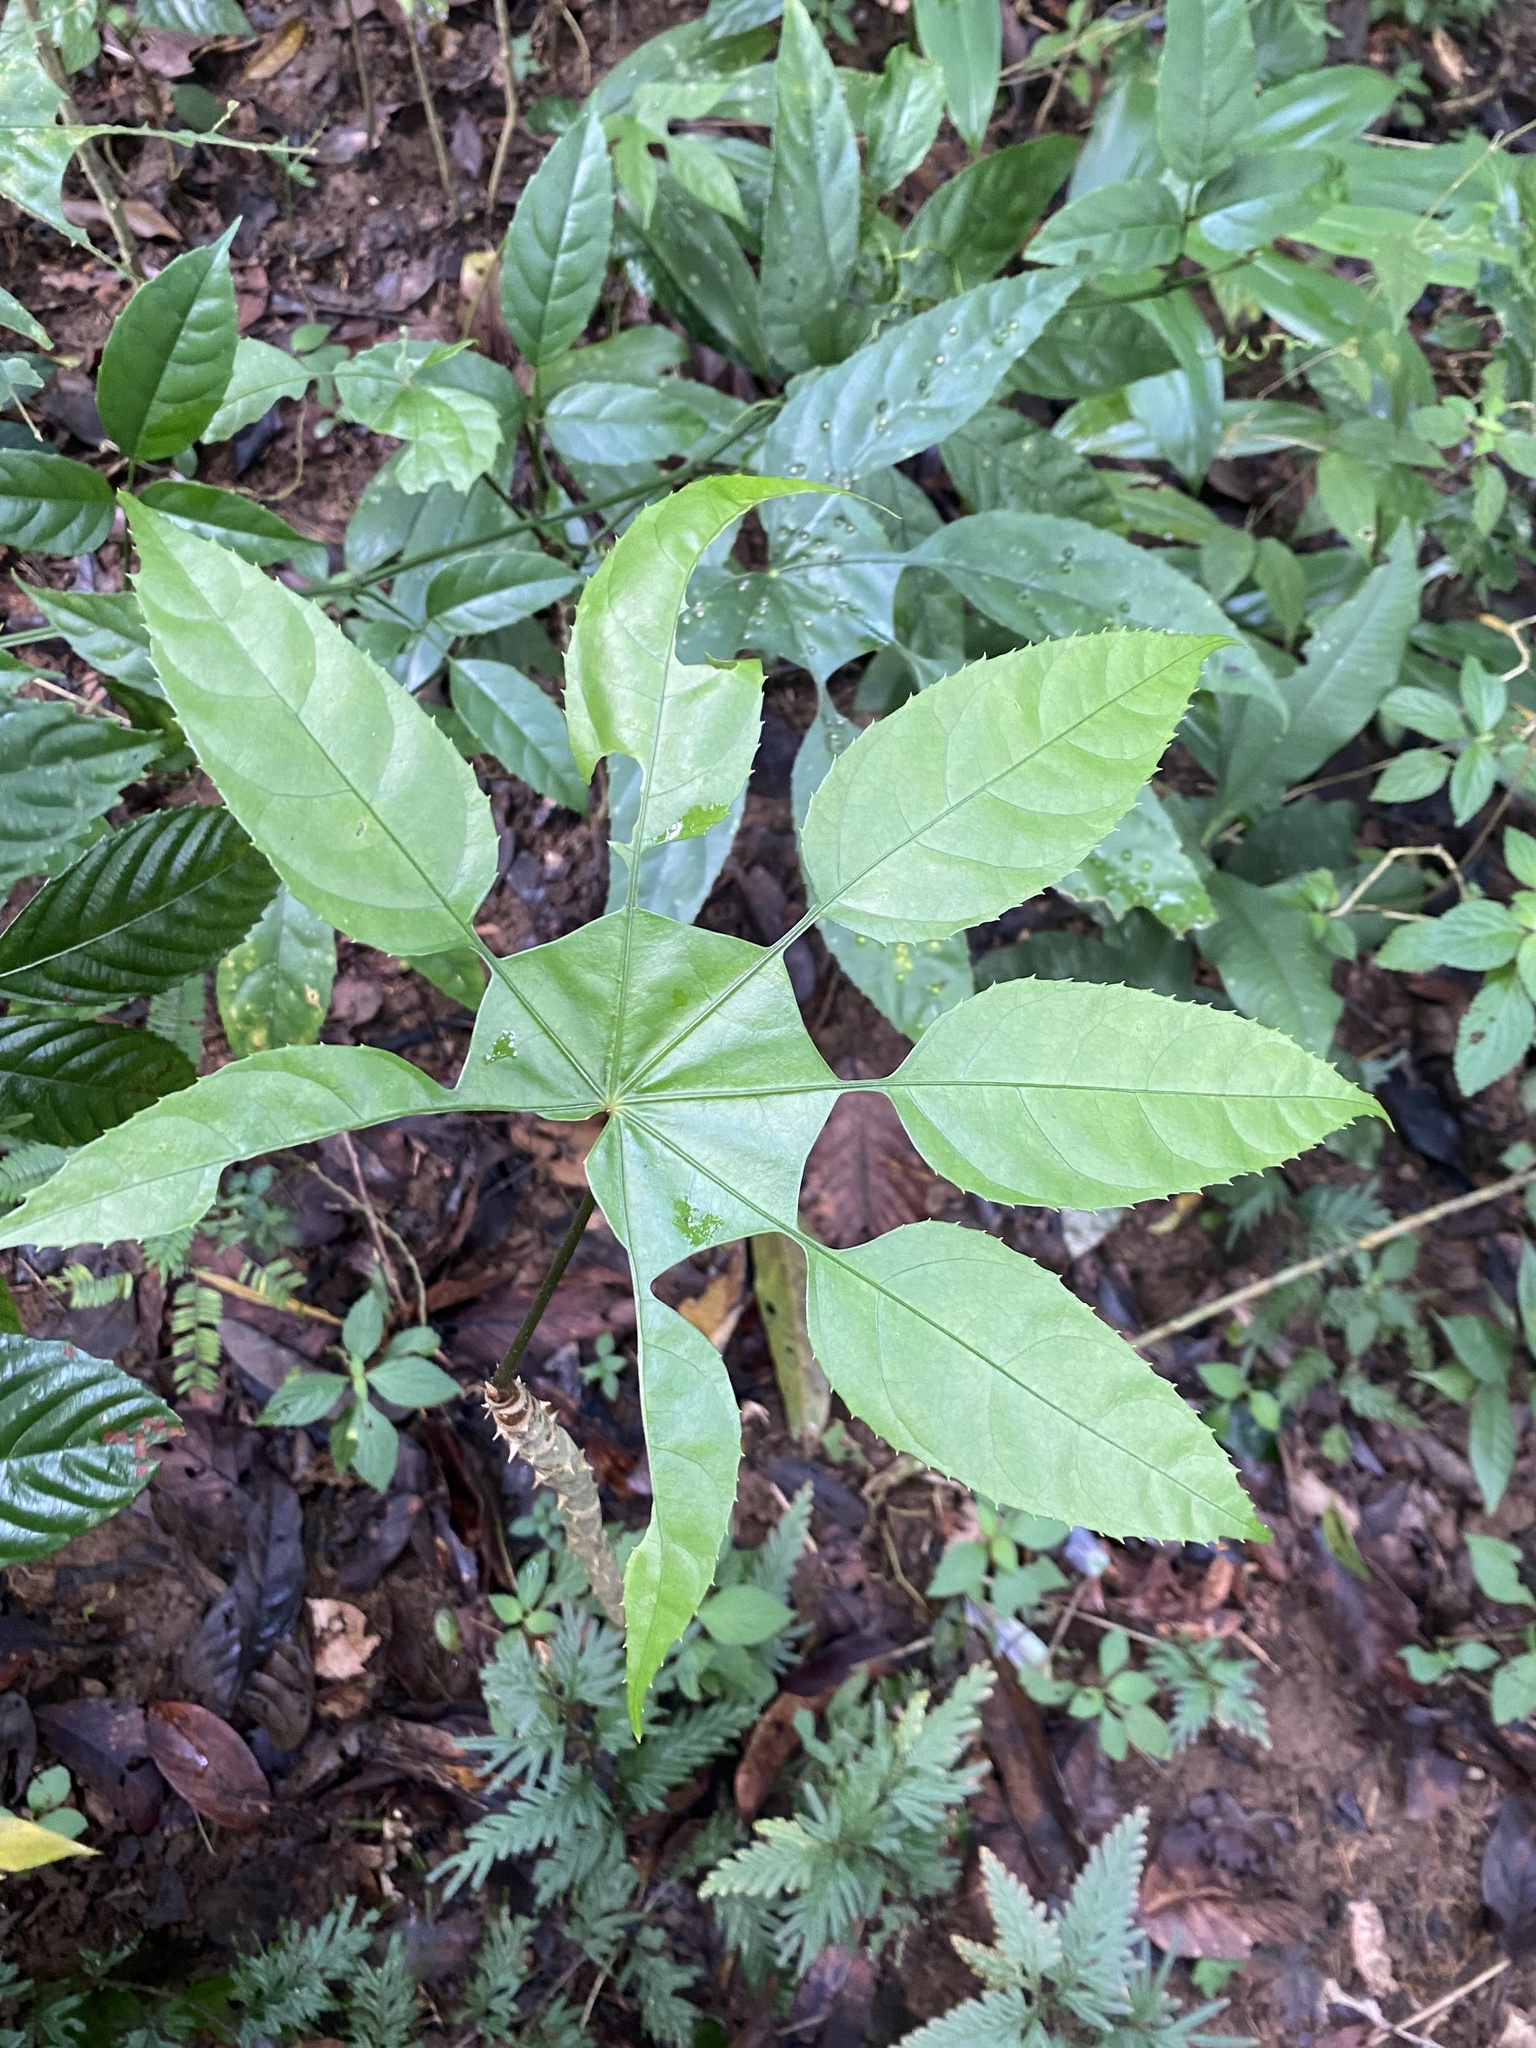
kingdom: Plantae
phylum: Tracheophyta
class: Magnoliopsida
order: Apiales
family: Araliaceae
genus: Trevesia
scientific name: Trevesia palmata
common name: Snowflakeplant
